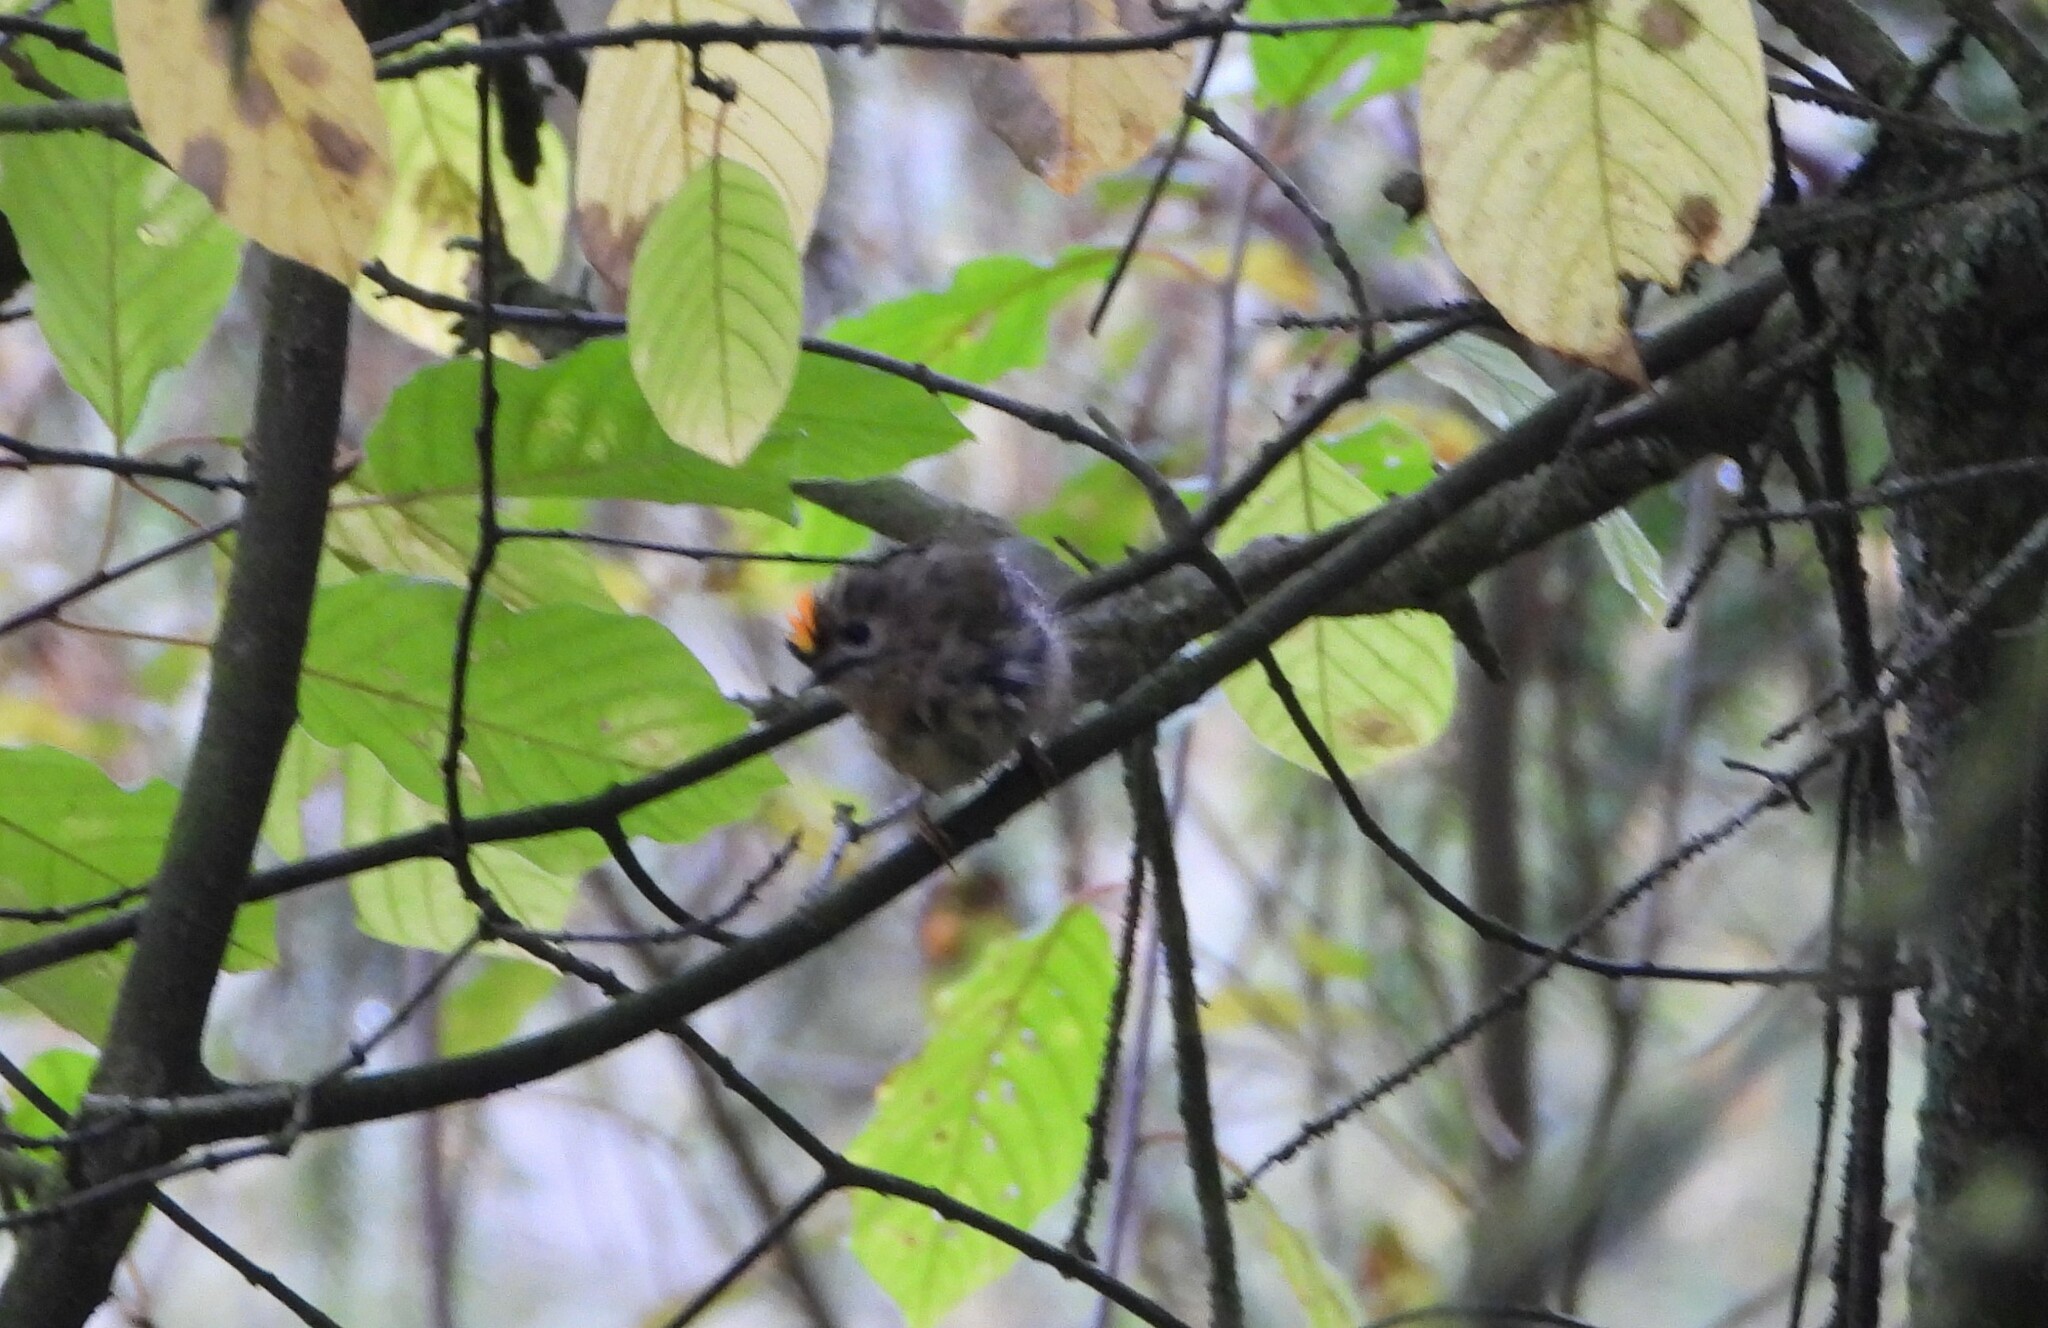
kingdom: Animalia
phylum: Chordata
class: Aves
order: Passeriformes
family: Regulidae
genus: Regulus
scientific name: Regulus regulus
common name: Goldcrest
